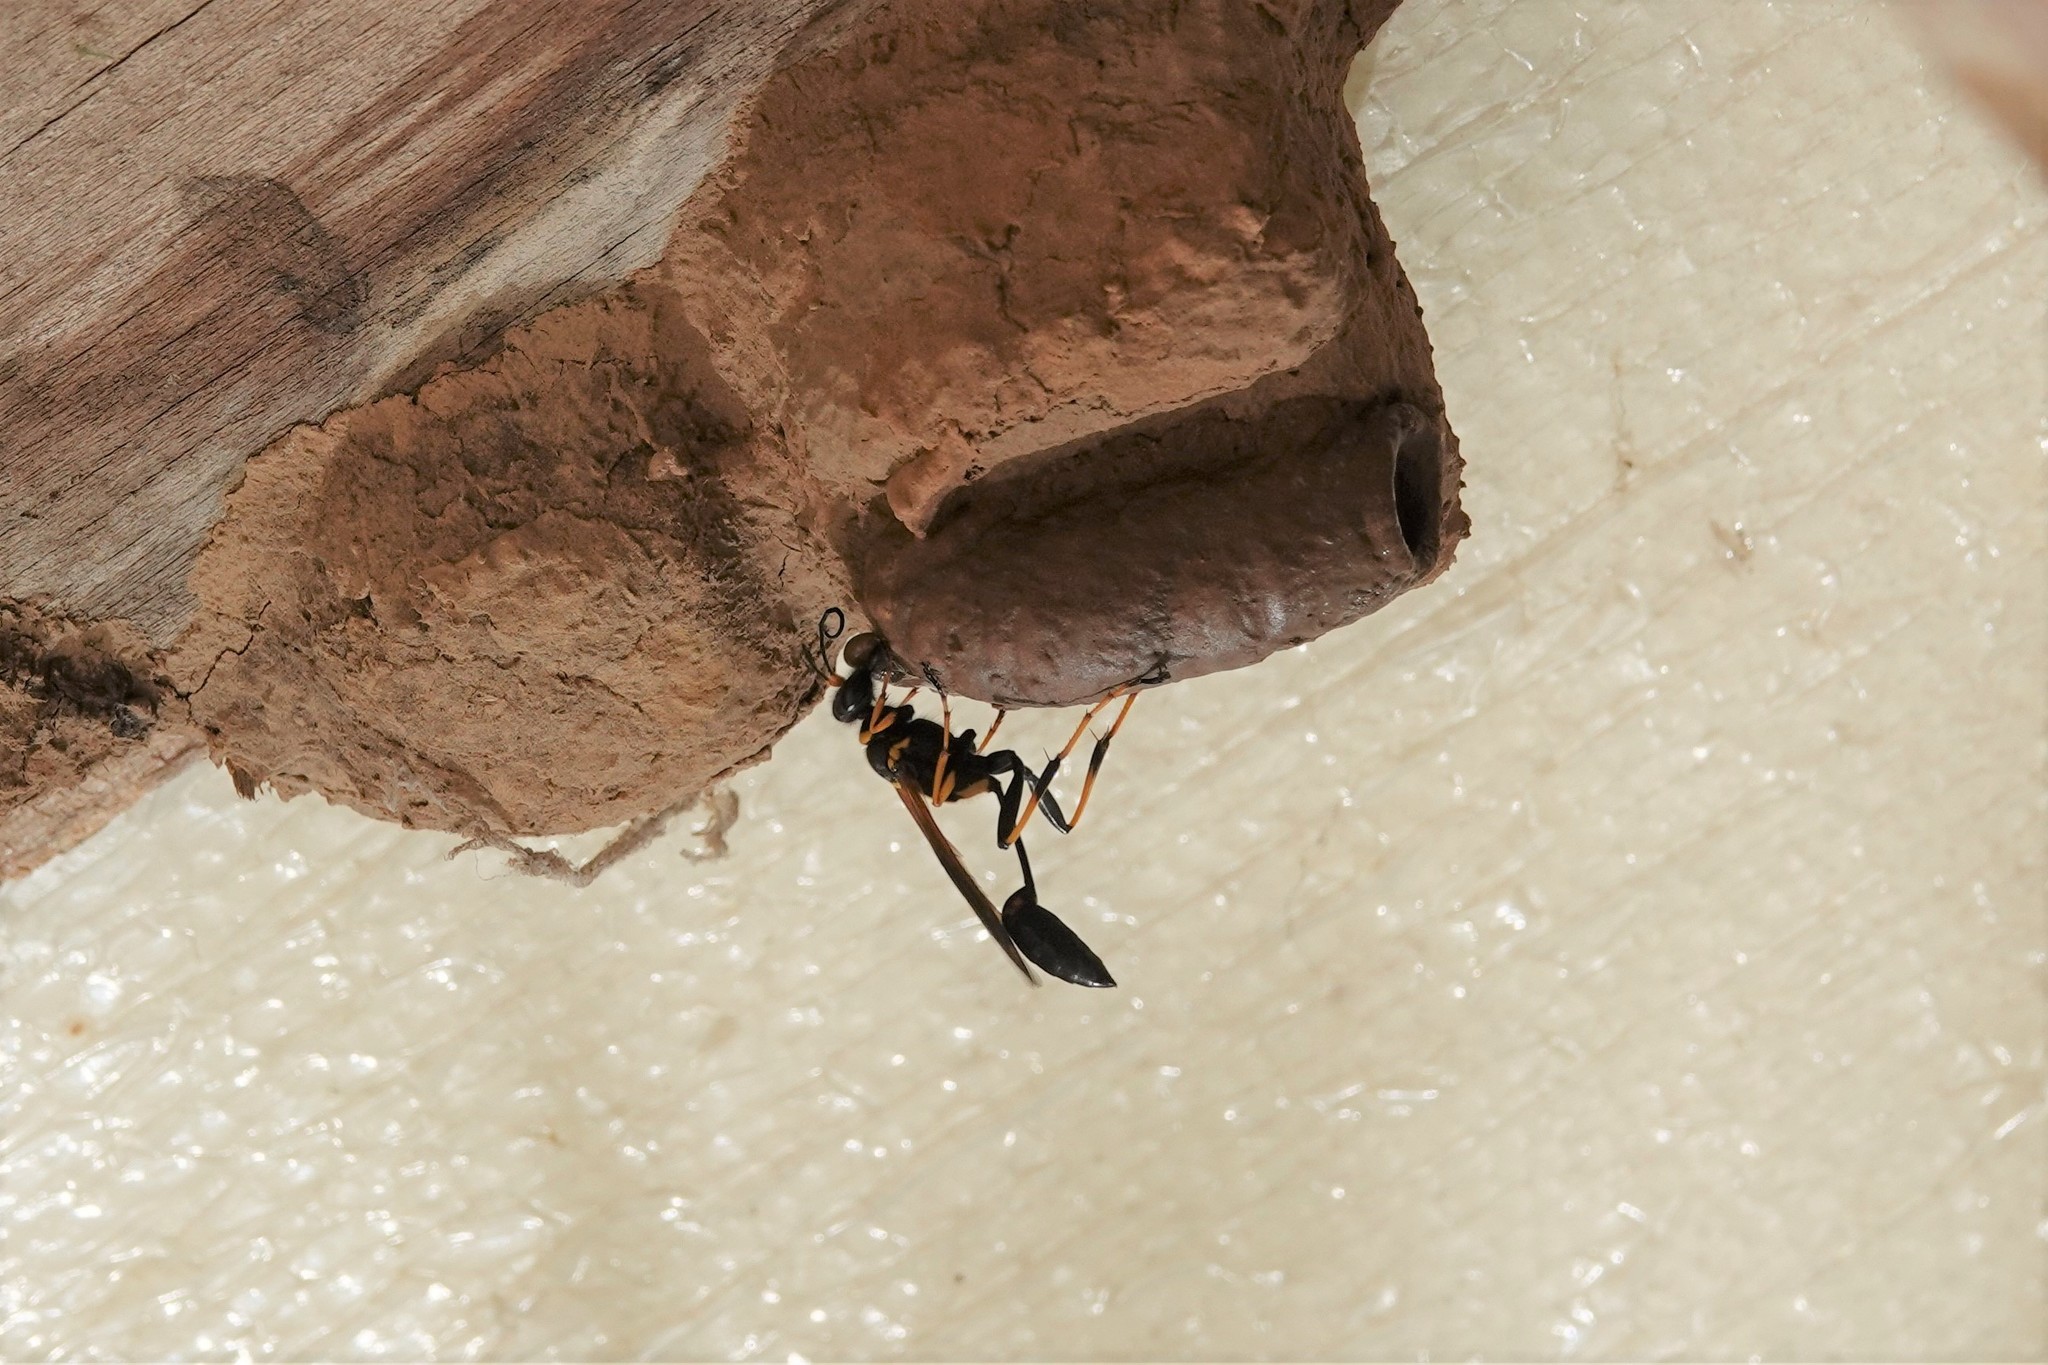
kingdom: Animalia
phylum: Arthropoda
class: Insecta
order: Hymenoptera
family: Sphecidae
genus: Sceliphron
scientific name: Sceliphron caementarium
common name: Mud dauber
